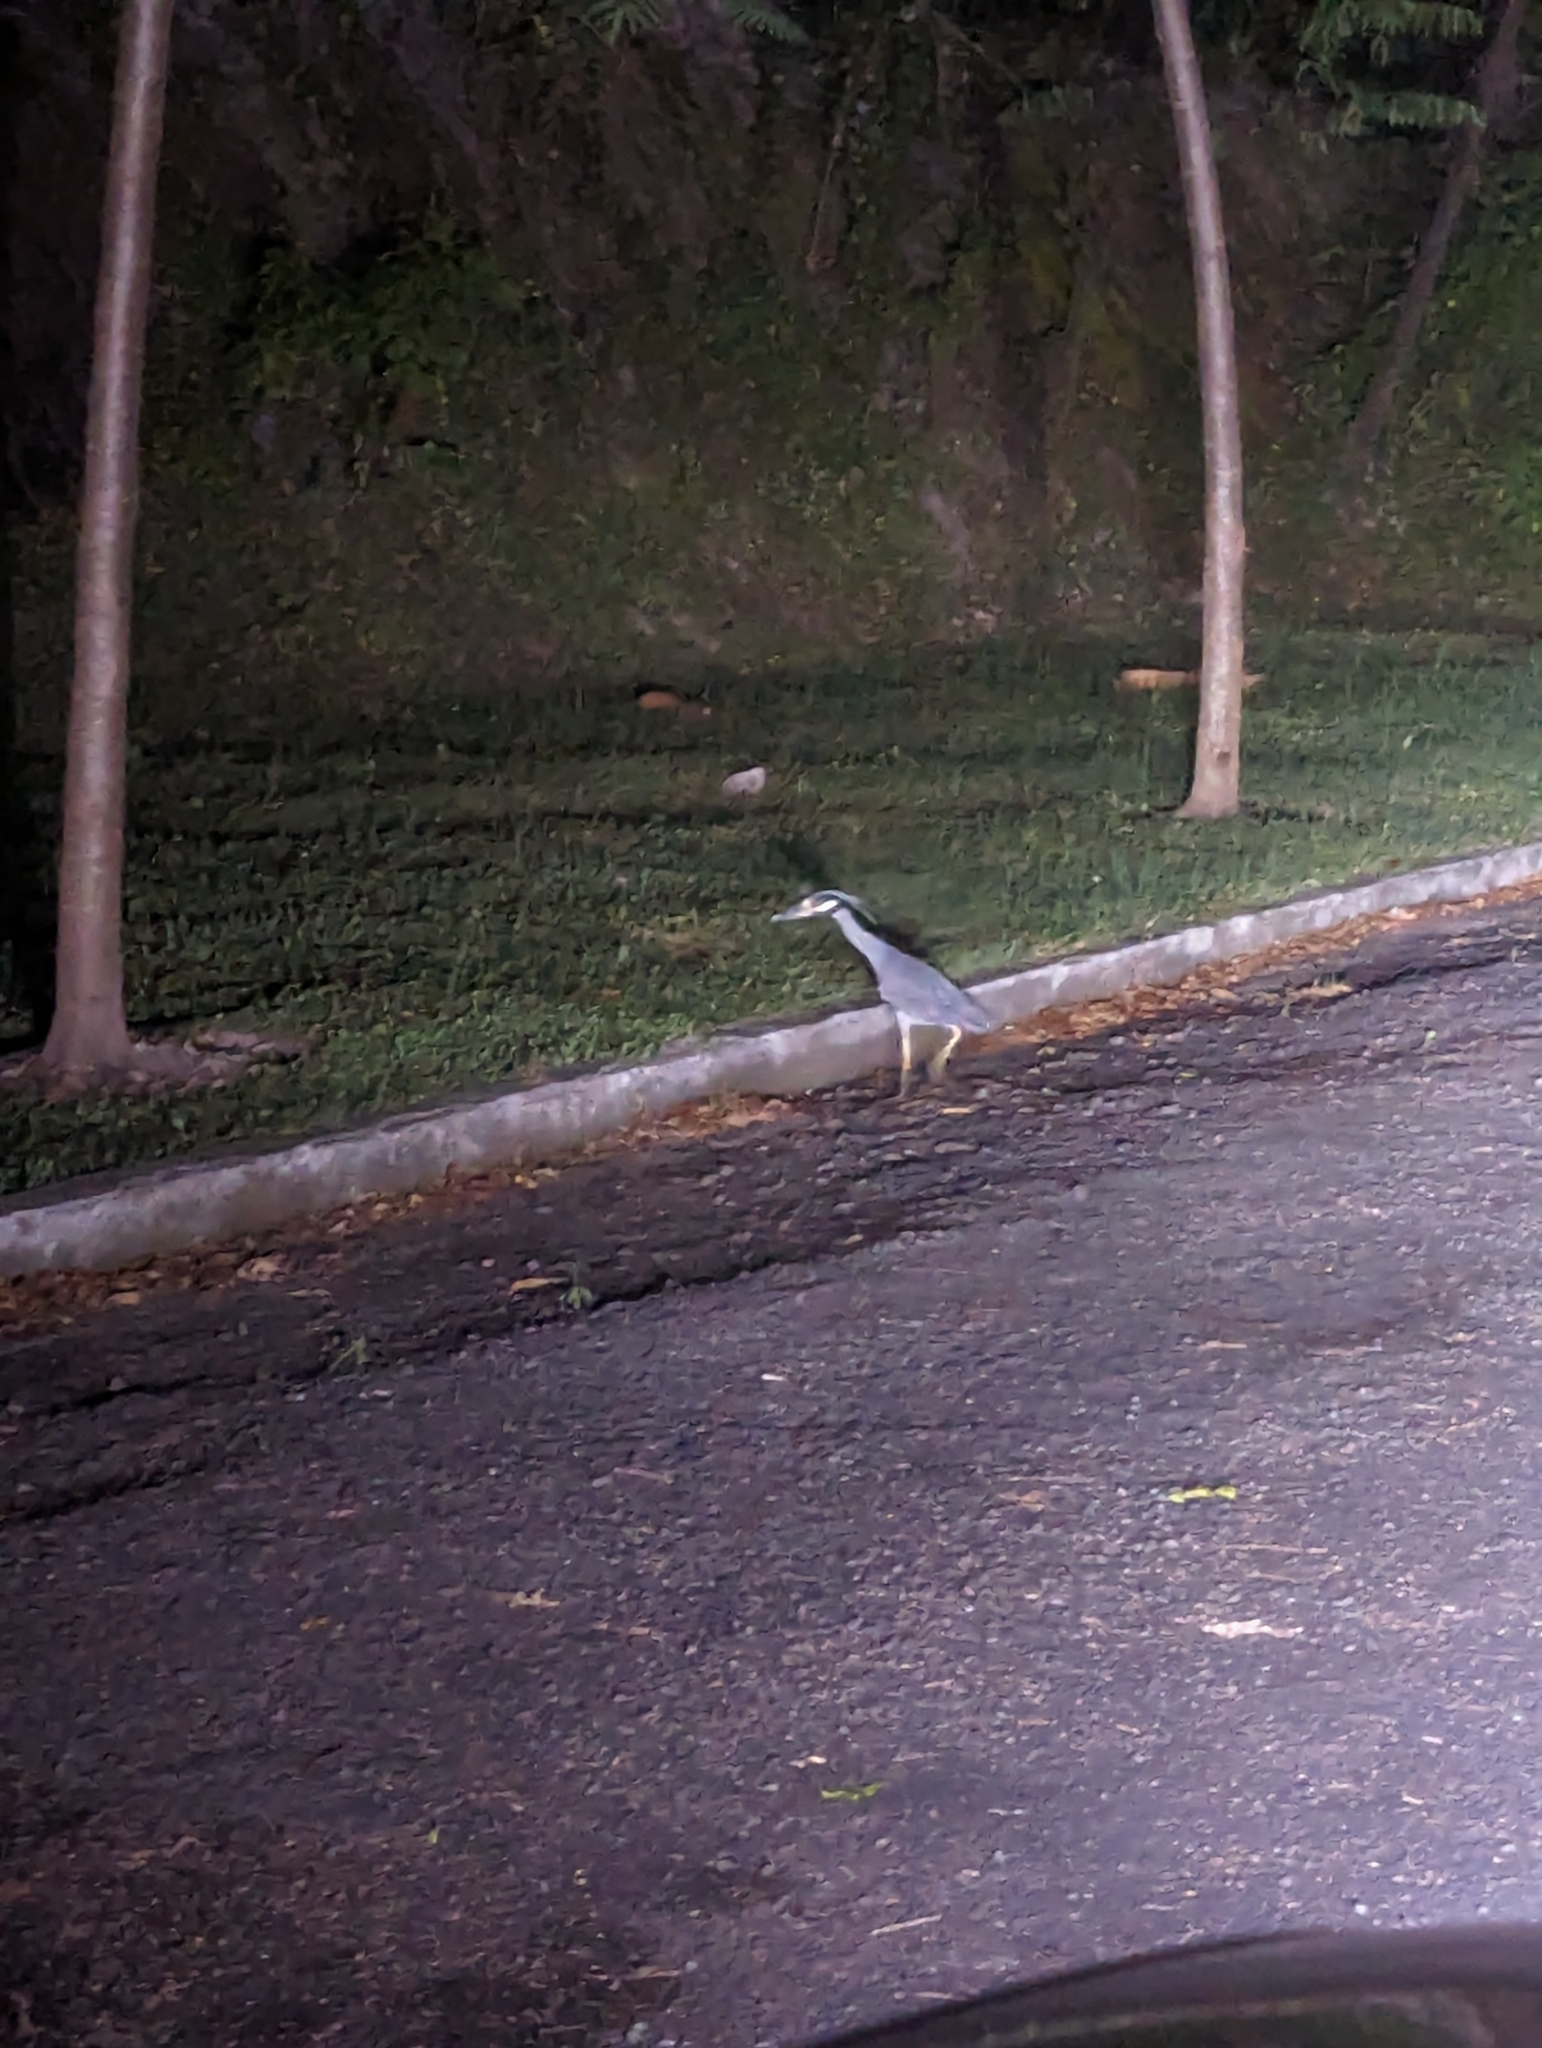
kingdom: Animalia
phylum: Chordata
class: Aves
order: Pelecaniformes
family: Ardeidae
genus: Nyctanassa
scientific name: Nyctanassa violacea
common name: Yellow-crowned night heron
